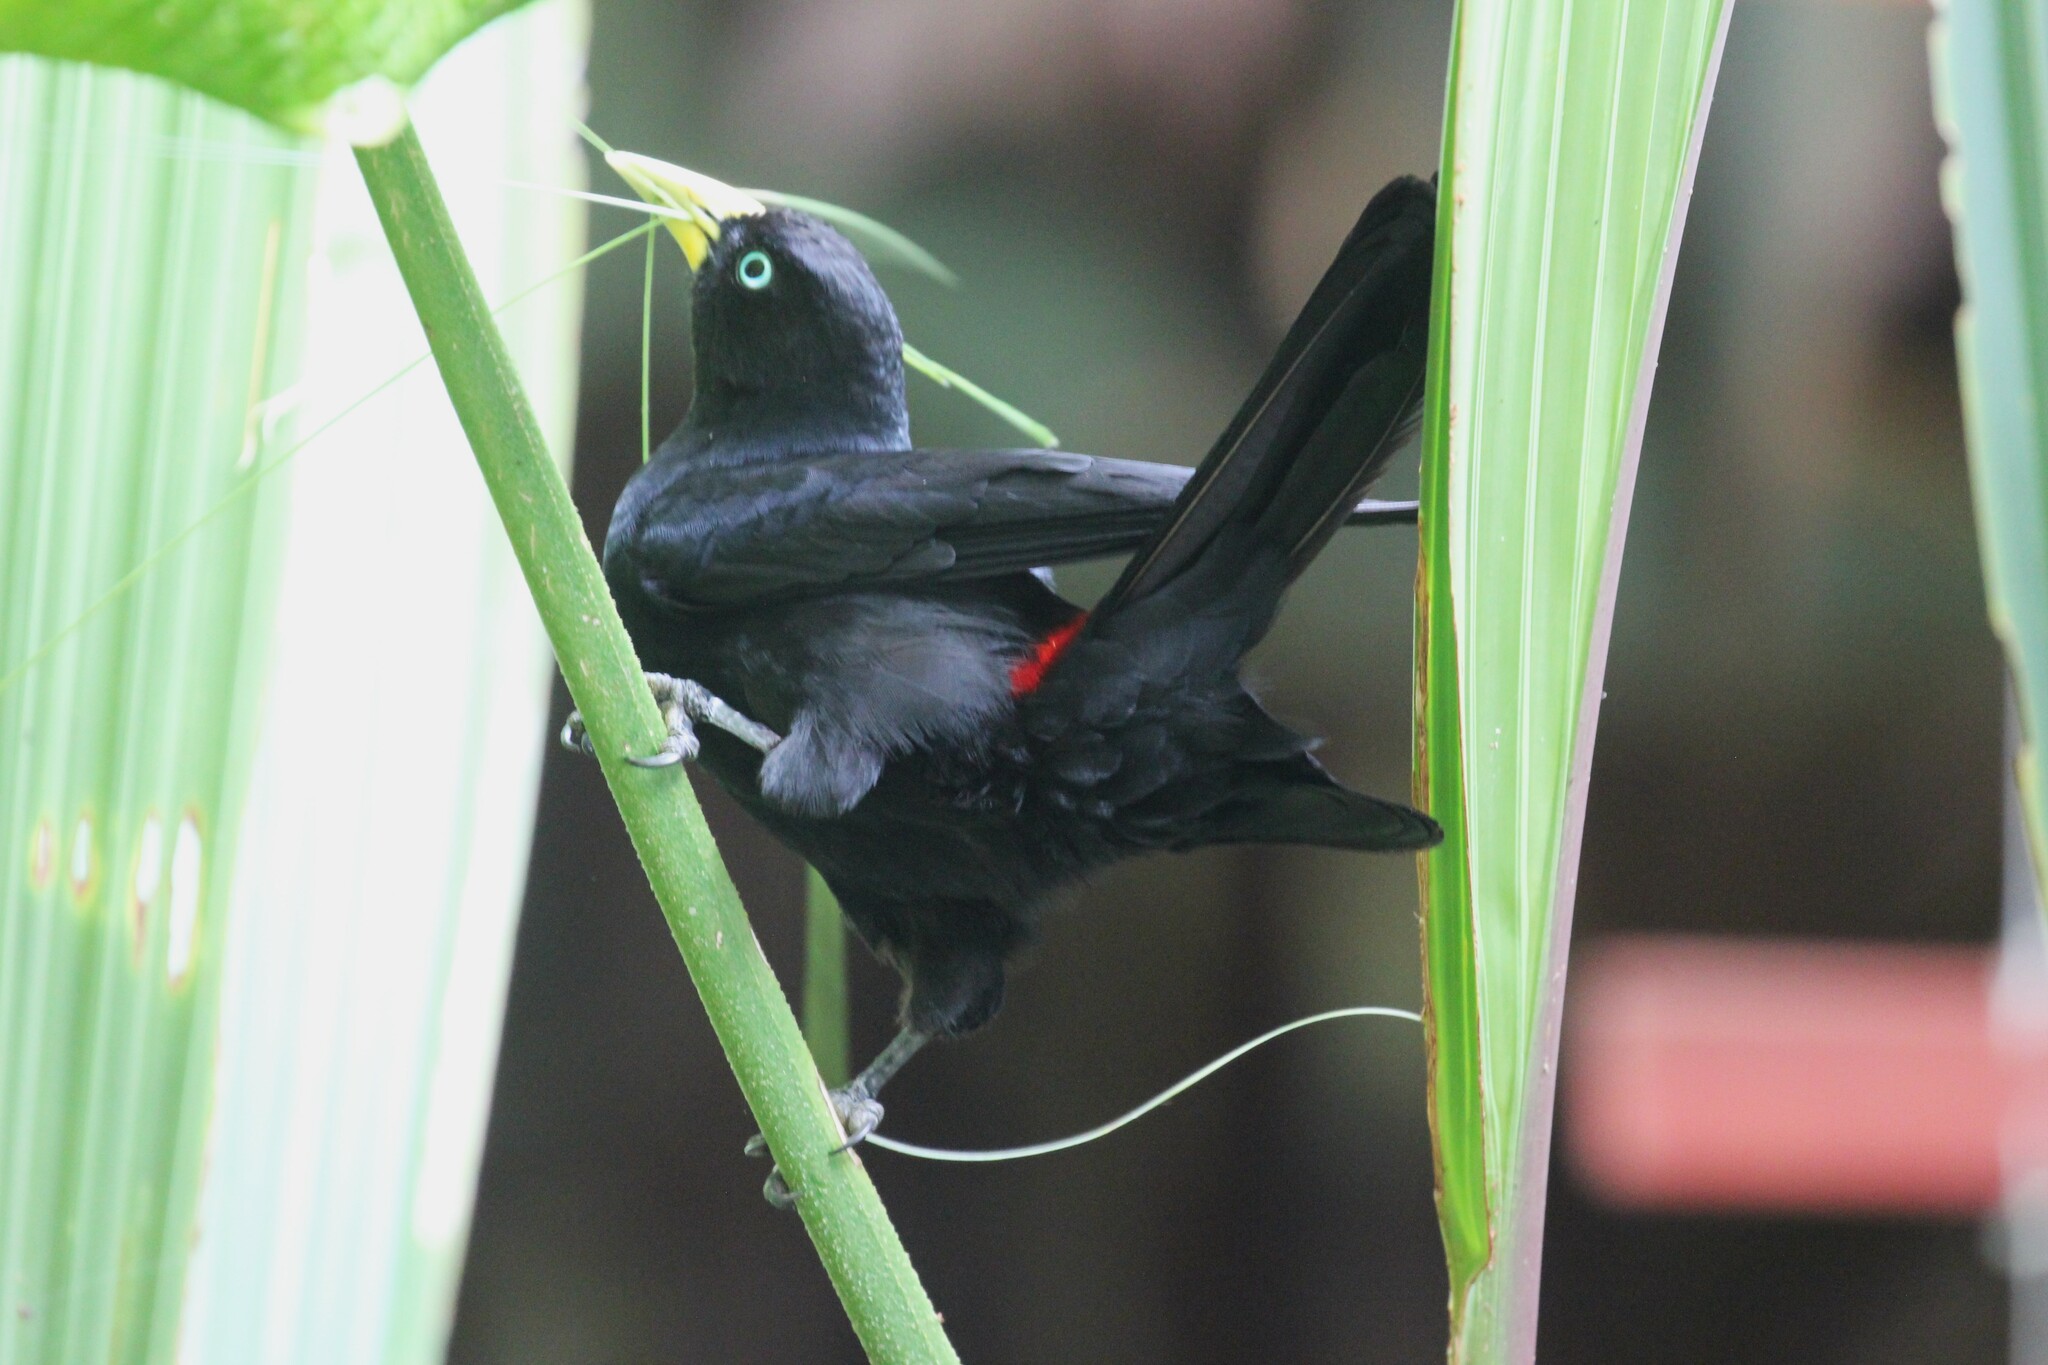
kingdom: Animalia
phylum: Chordata
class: Aves
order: Passeriformes
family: Icteridae
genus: Cacicus
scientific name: Cacicus uropygialis
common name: Scarlet-rumped cacique
